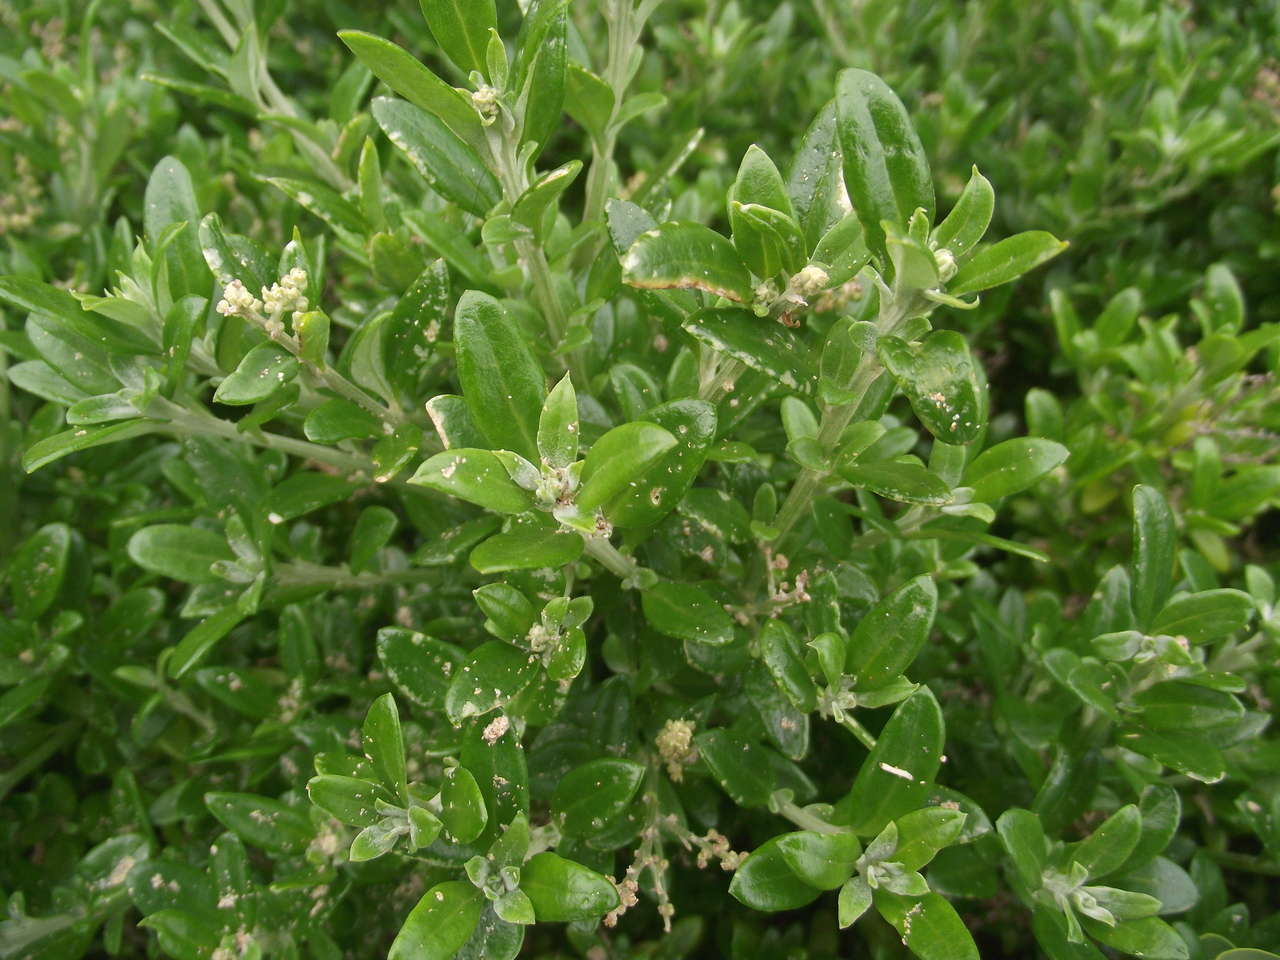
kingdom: Plantae
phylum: Tracheophyta
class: Magnoliopsida
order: Caryophyllales
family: Amaranthaceae
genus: Chenopodium
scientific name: Chenopodium candolleanum
